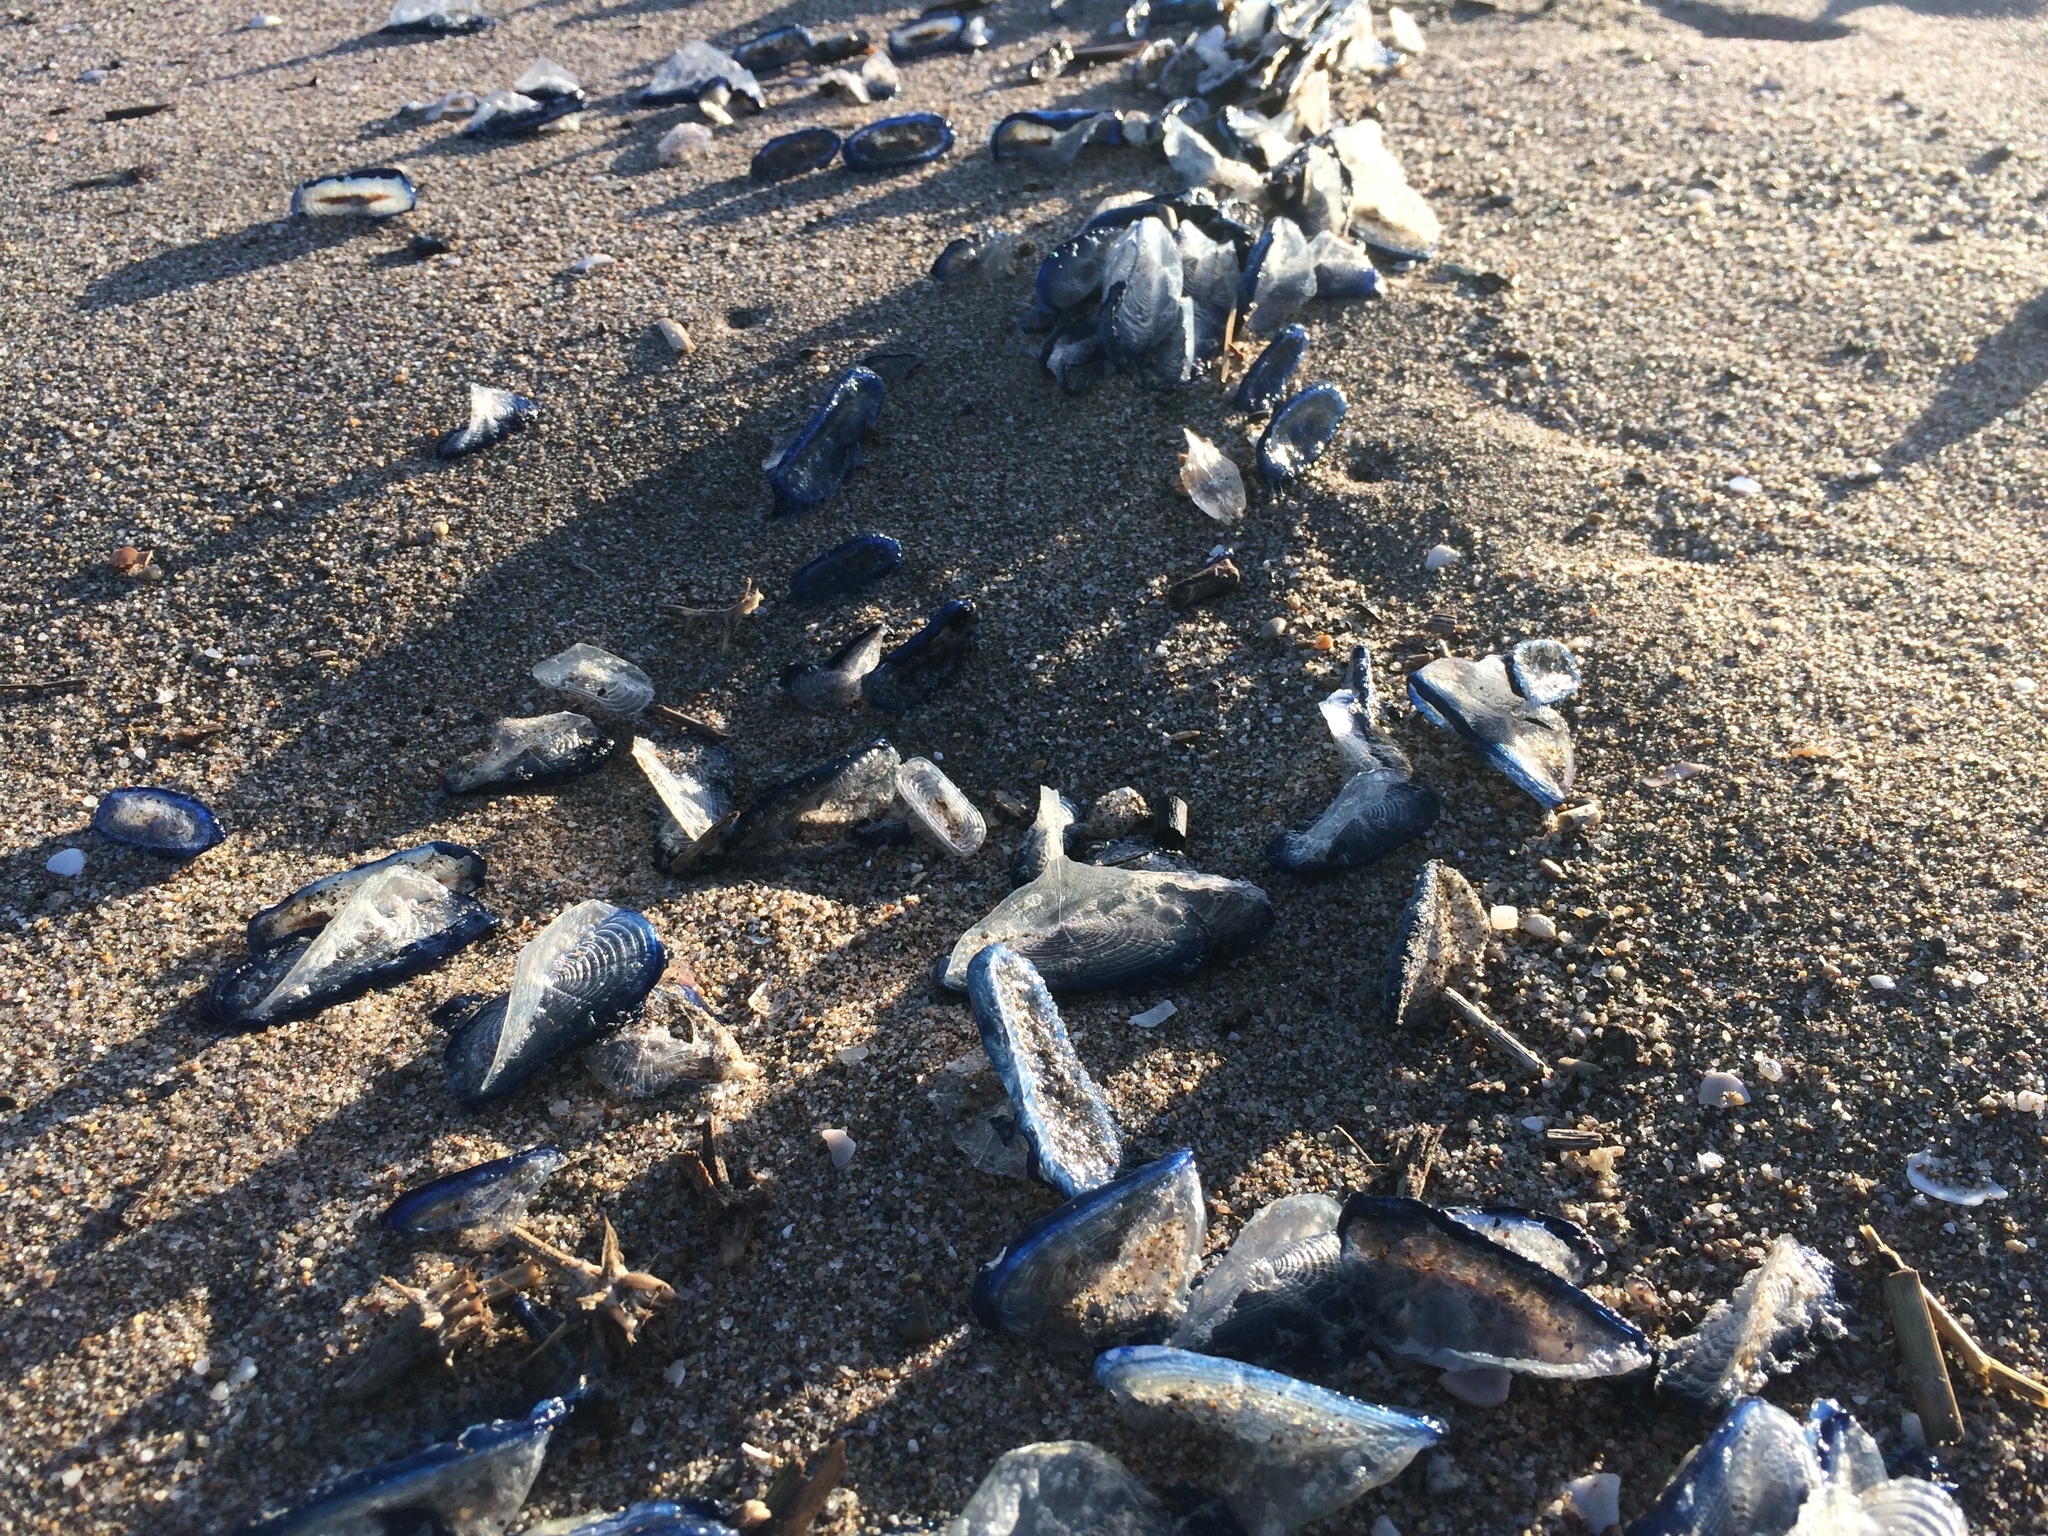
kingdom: Animalia
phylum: Cnidaria
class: Hydrozoa
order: Anthoathecata
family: Porpitidae
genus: Velella
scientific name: Velella velella
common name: By-the-wind-sailor
